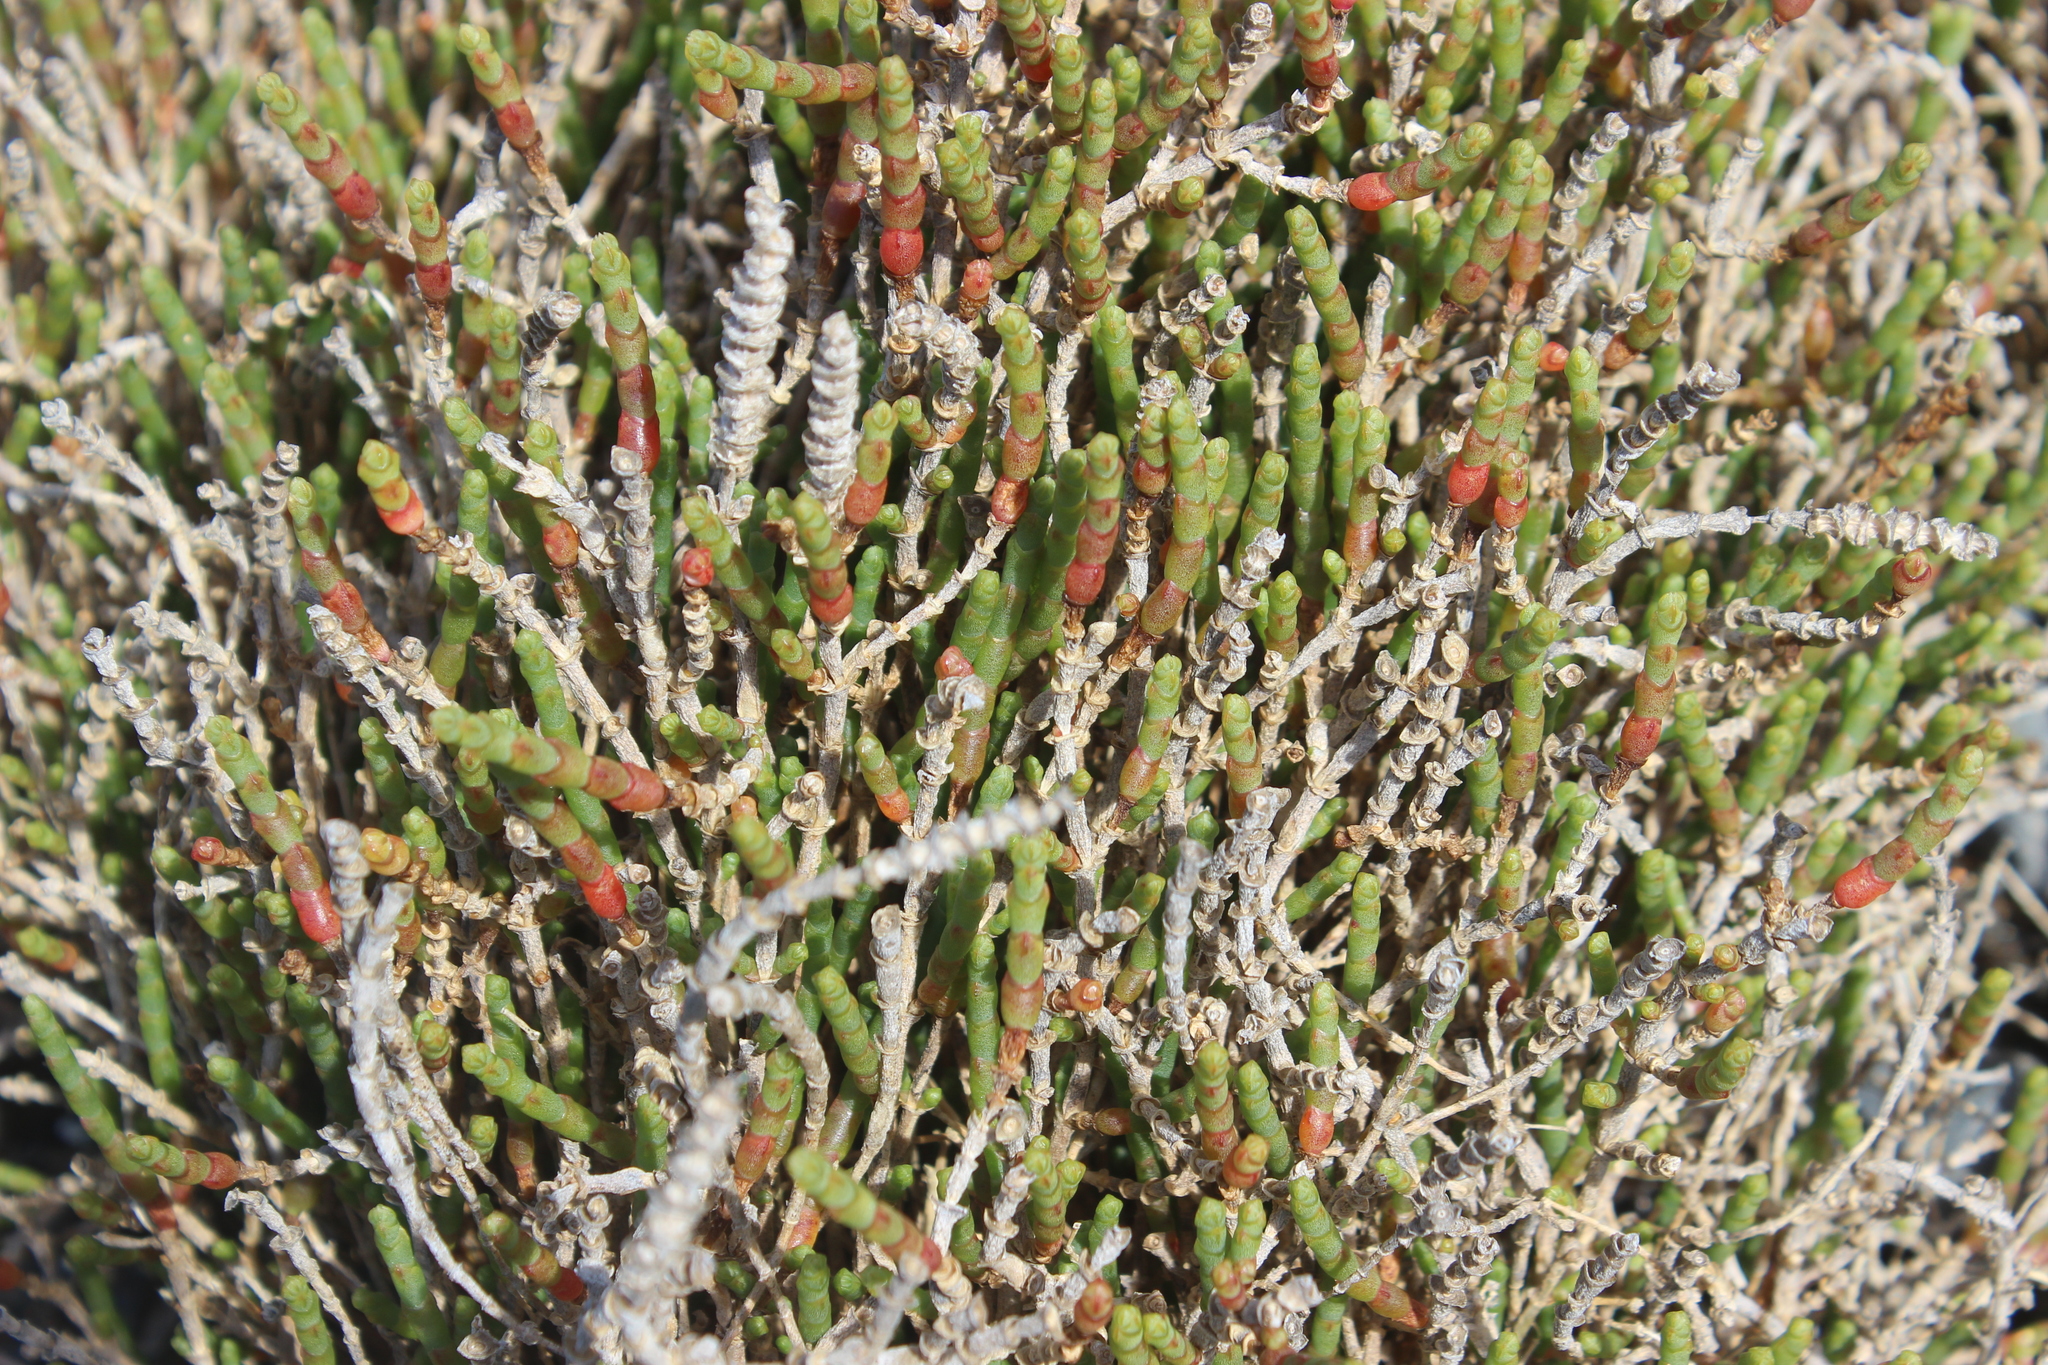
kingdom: Plantae
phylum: Tracheophyta
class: Magnoliopsida
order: Caryophyllales
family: Amaranthaceae
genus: Salicornia
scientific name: Salicornia quinqueflora
